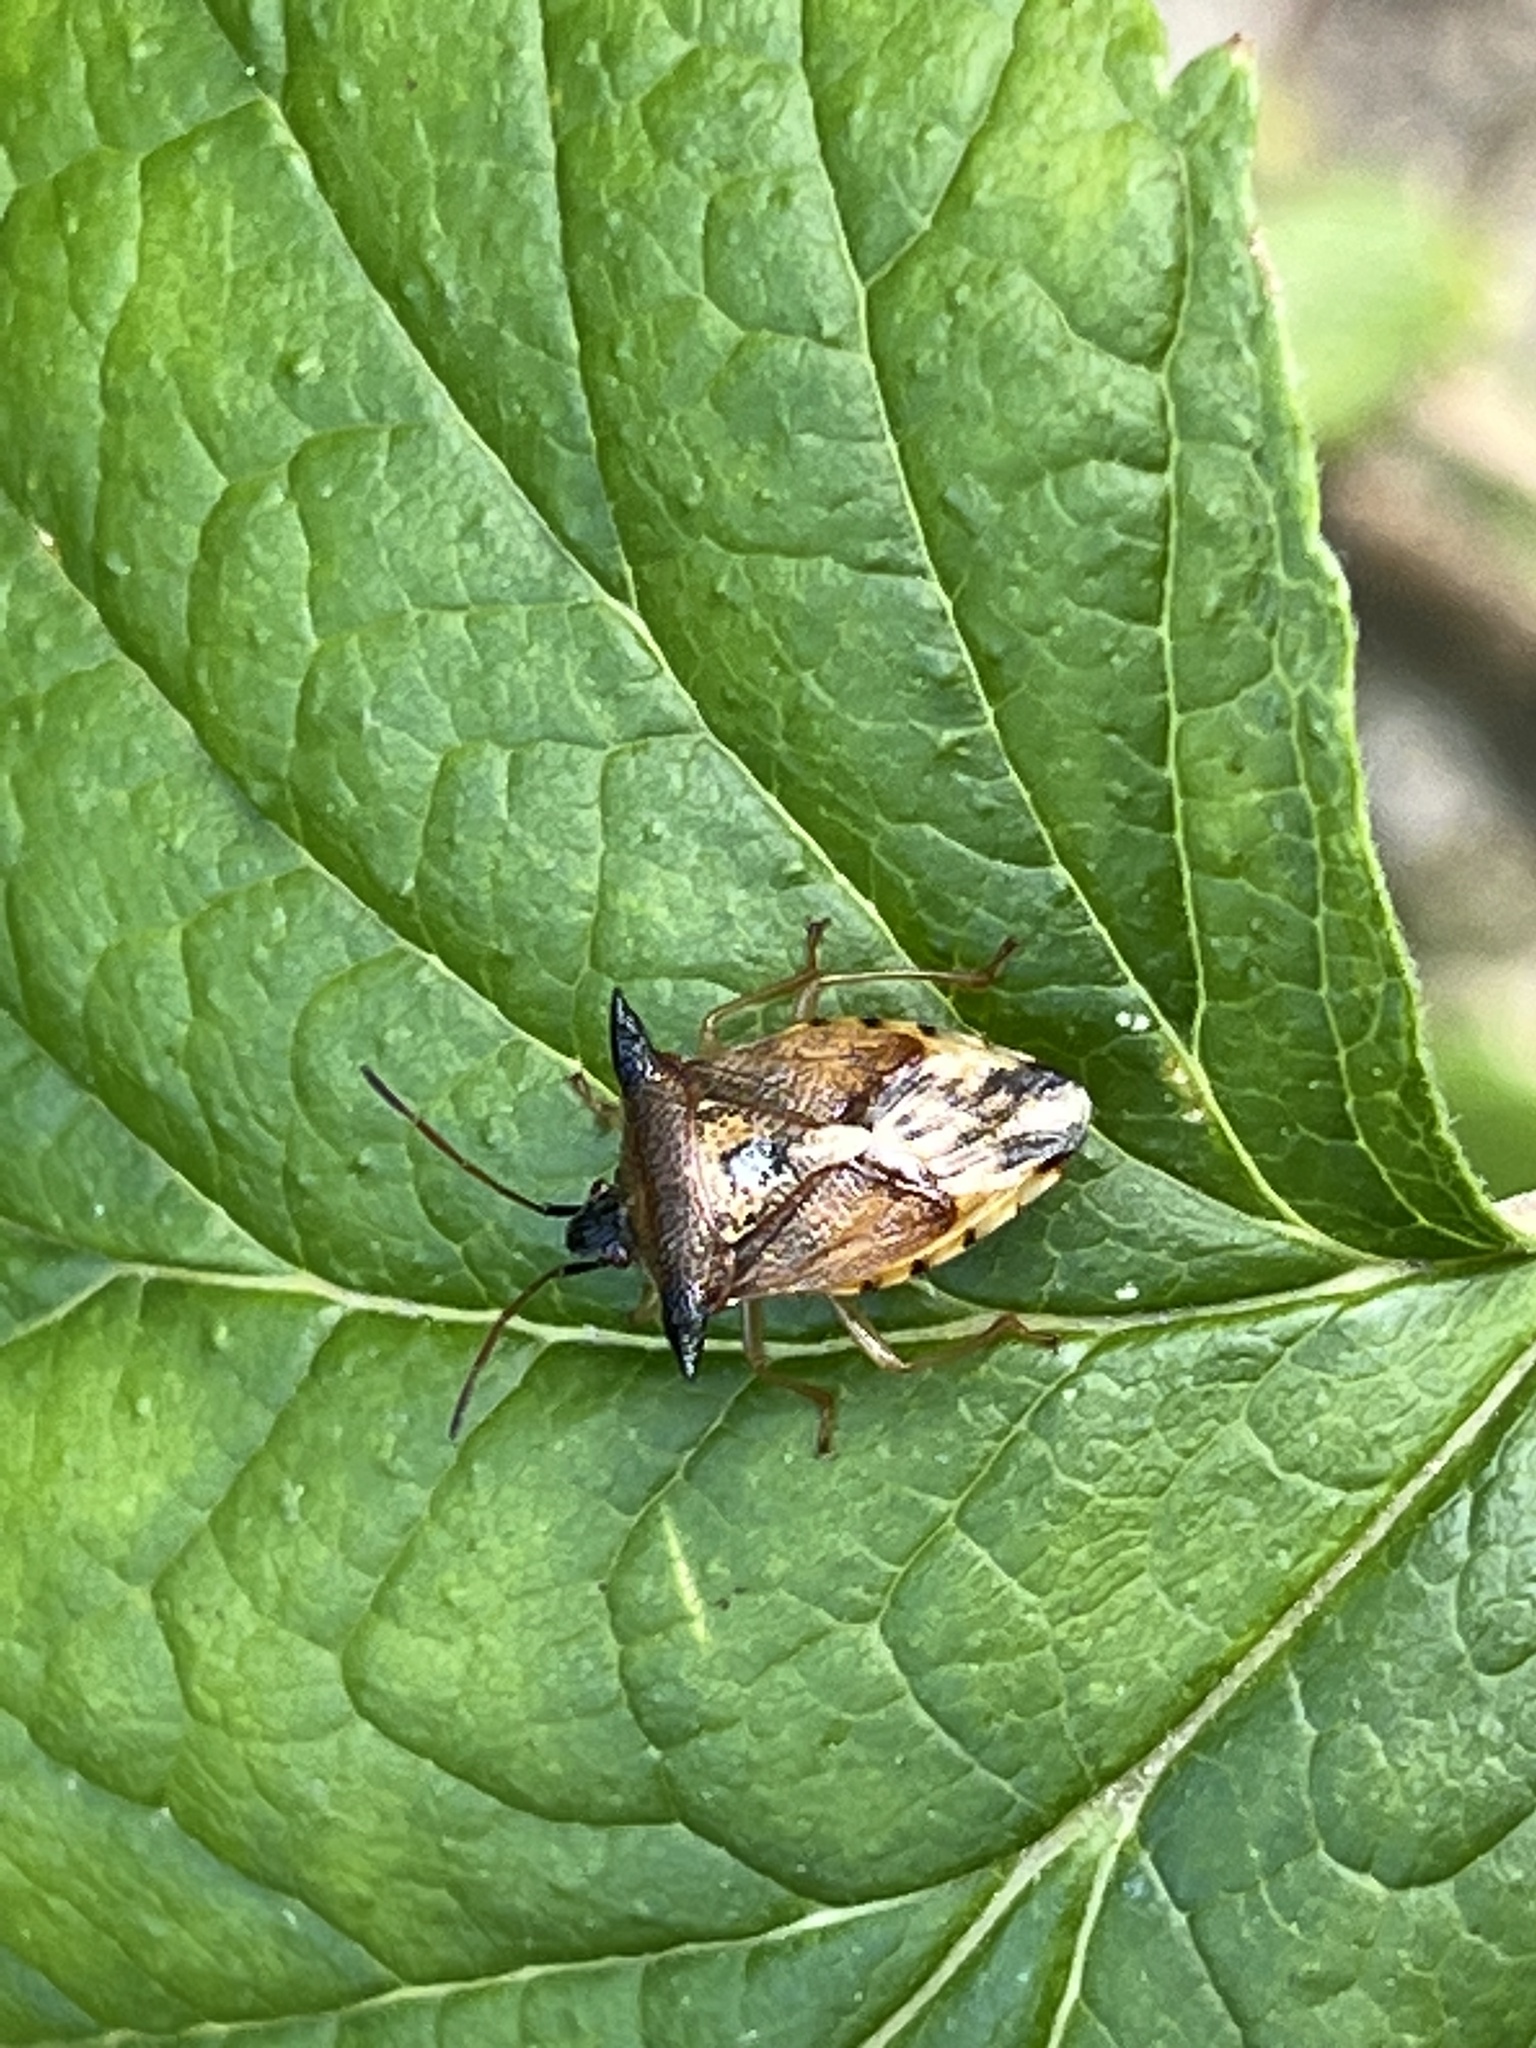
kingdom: Animalia
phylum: Arthropoda
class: Insecta
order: Hemiptera
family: Acanthosomatidae
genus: Elasmucha
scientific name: Elasmucha ferrugata
